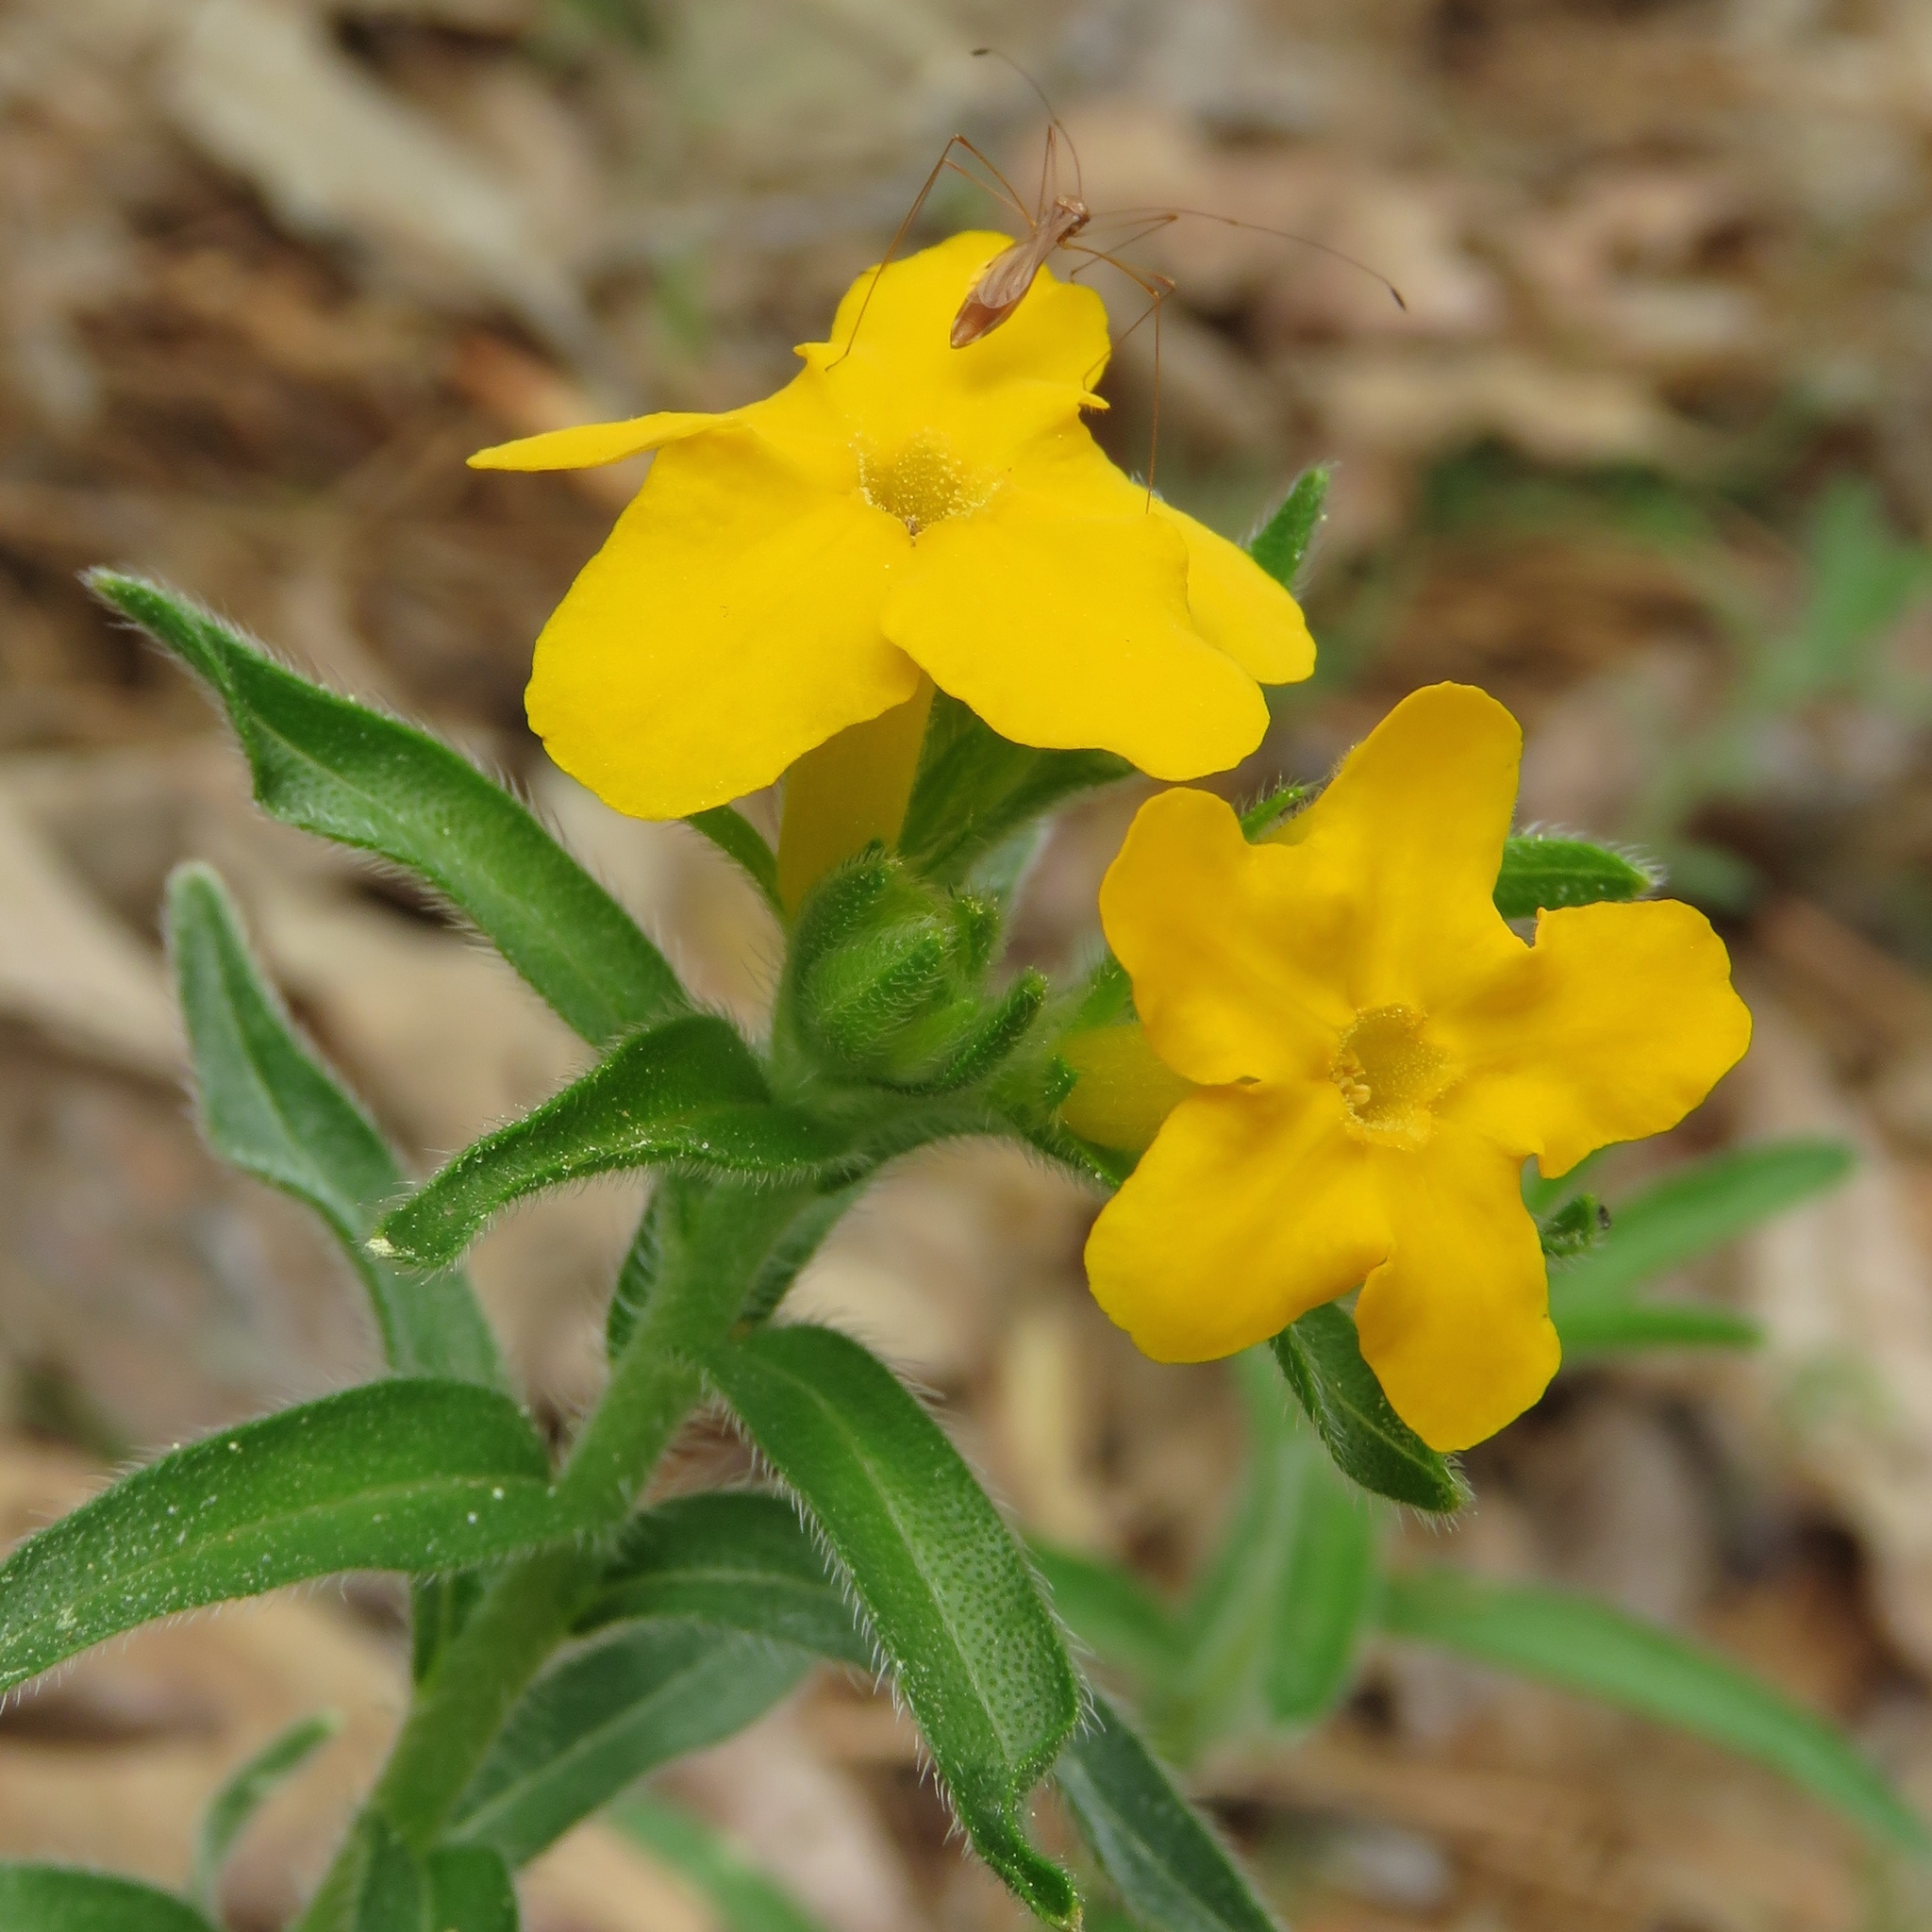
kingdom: Plantae
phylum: Tracheophyta
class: Magnoliopsida
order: Boraginales
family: Boraginaceae
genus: Lithospermum
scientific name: Lithospermum caroliniense
